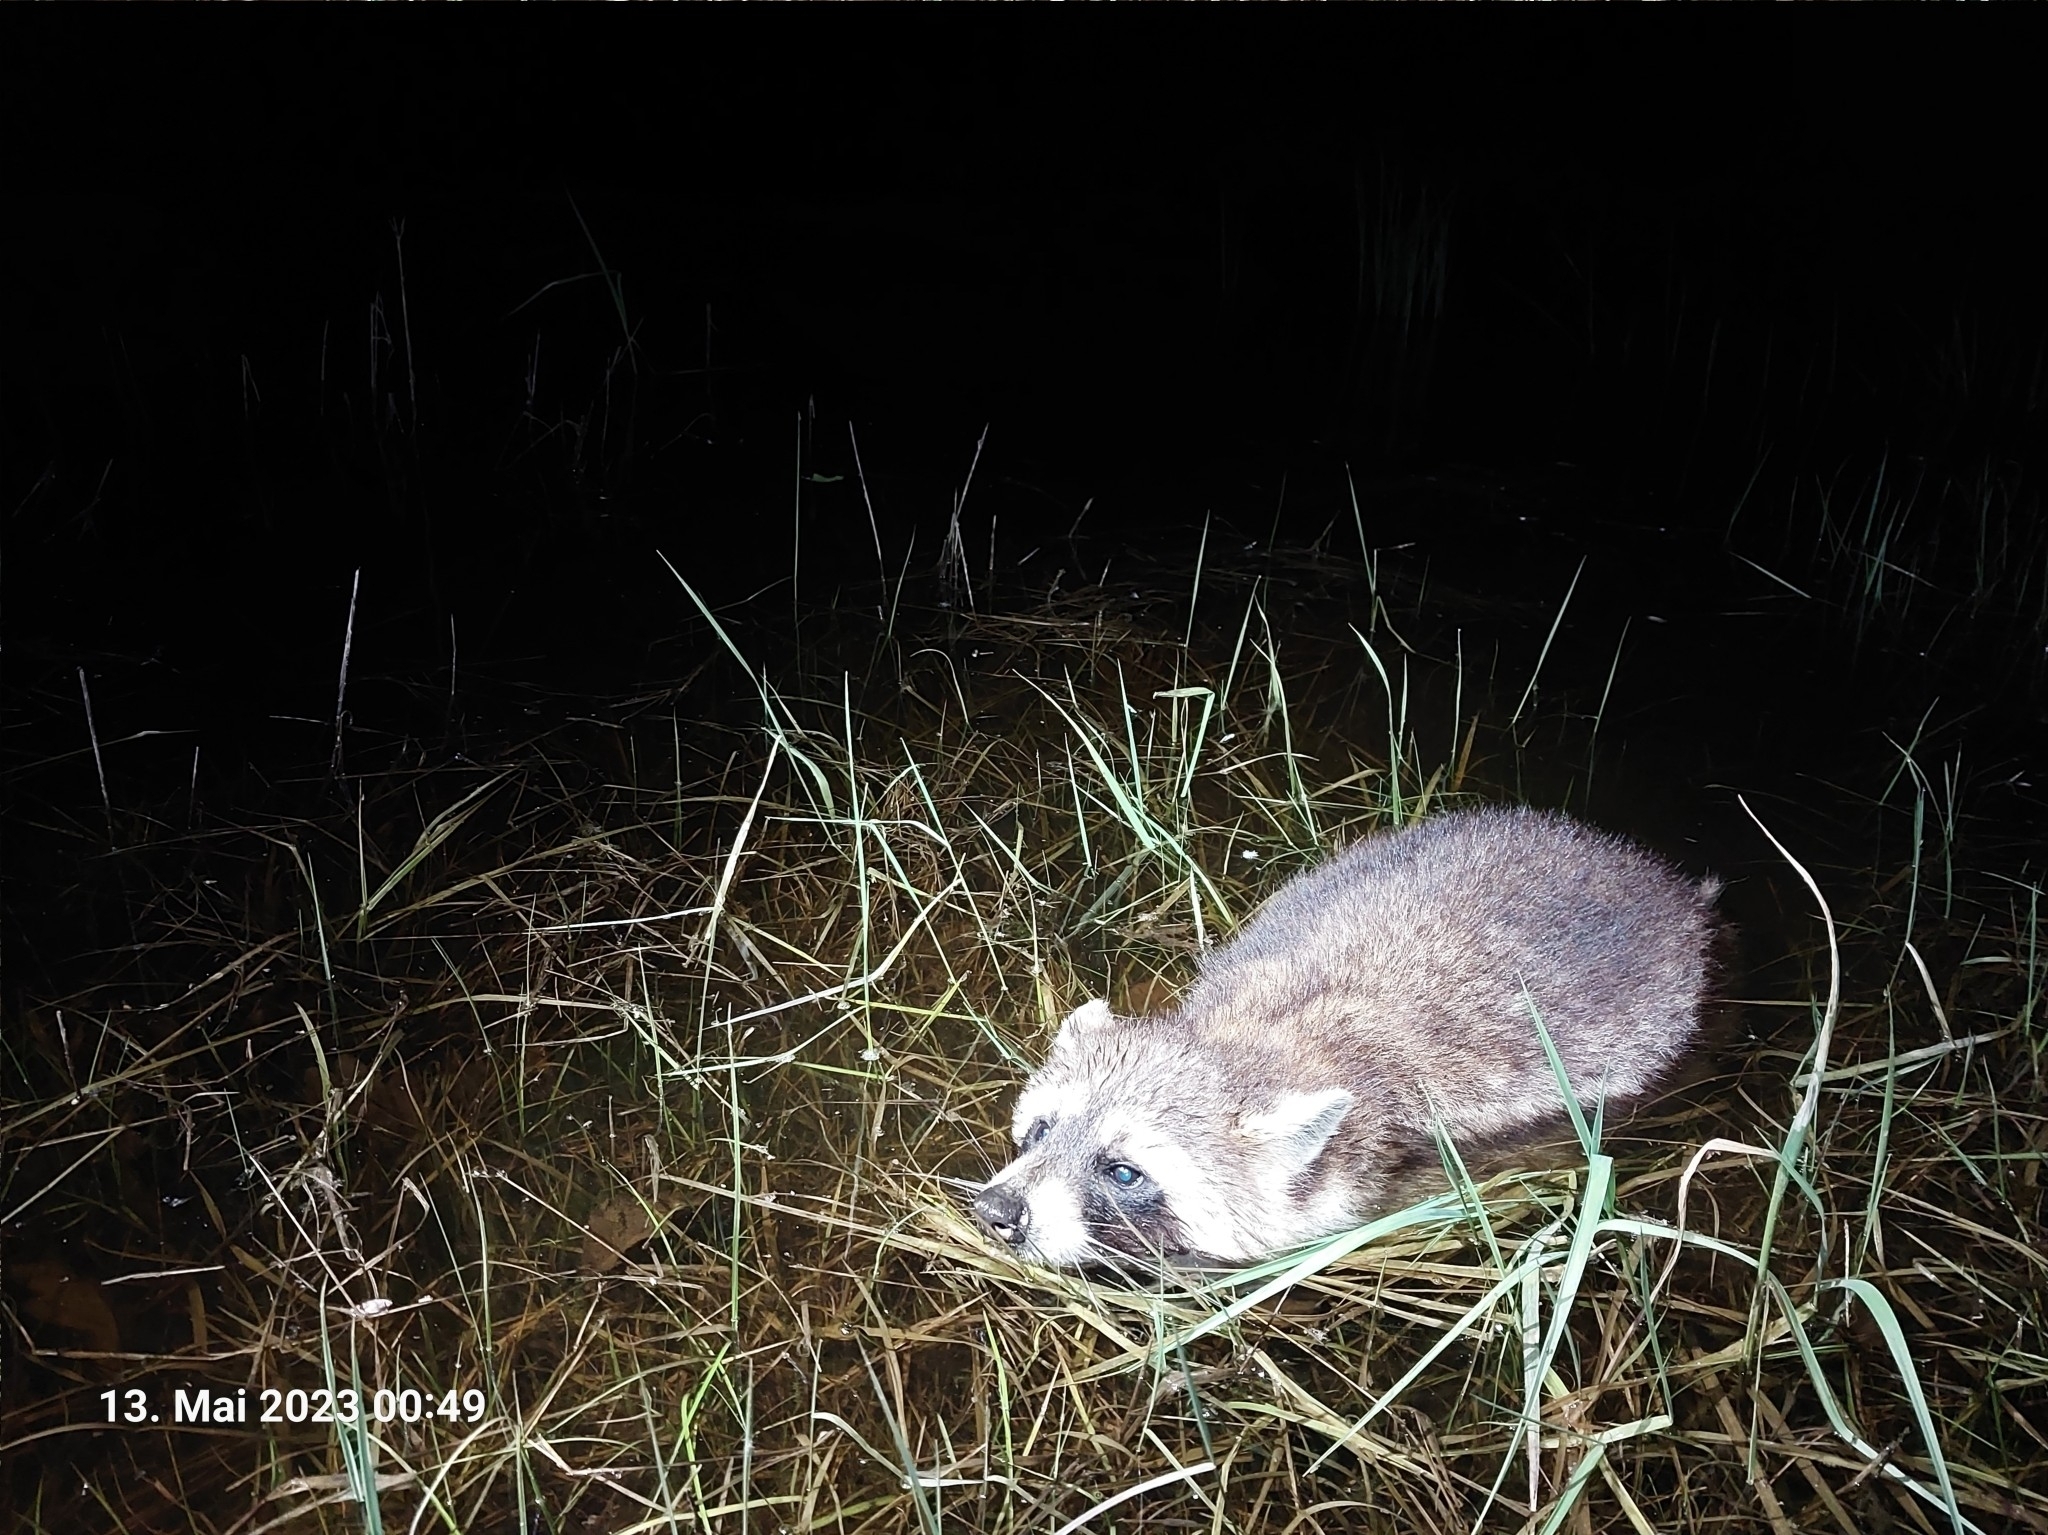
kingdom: Animalia
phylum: Chordata
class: Mammalia
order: Carnivora
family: Procyonidae
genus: Procyon
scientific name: Procyon lotor
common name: Raccoon
